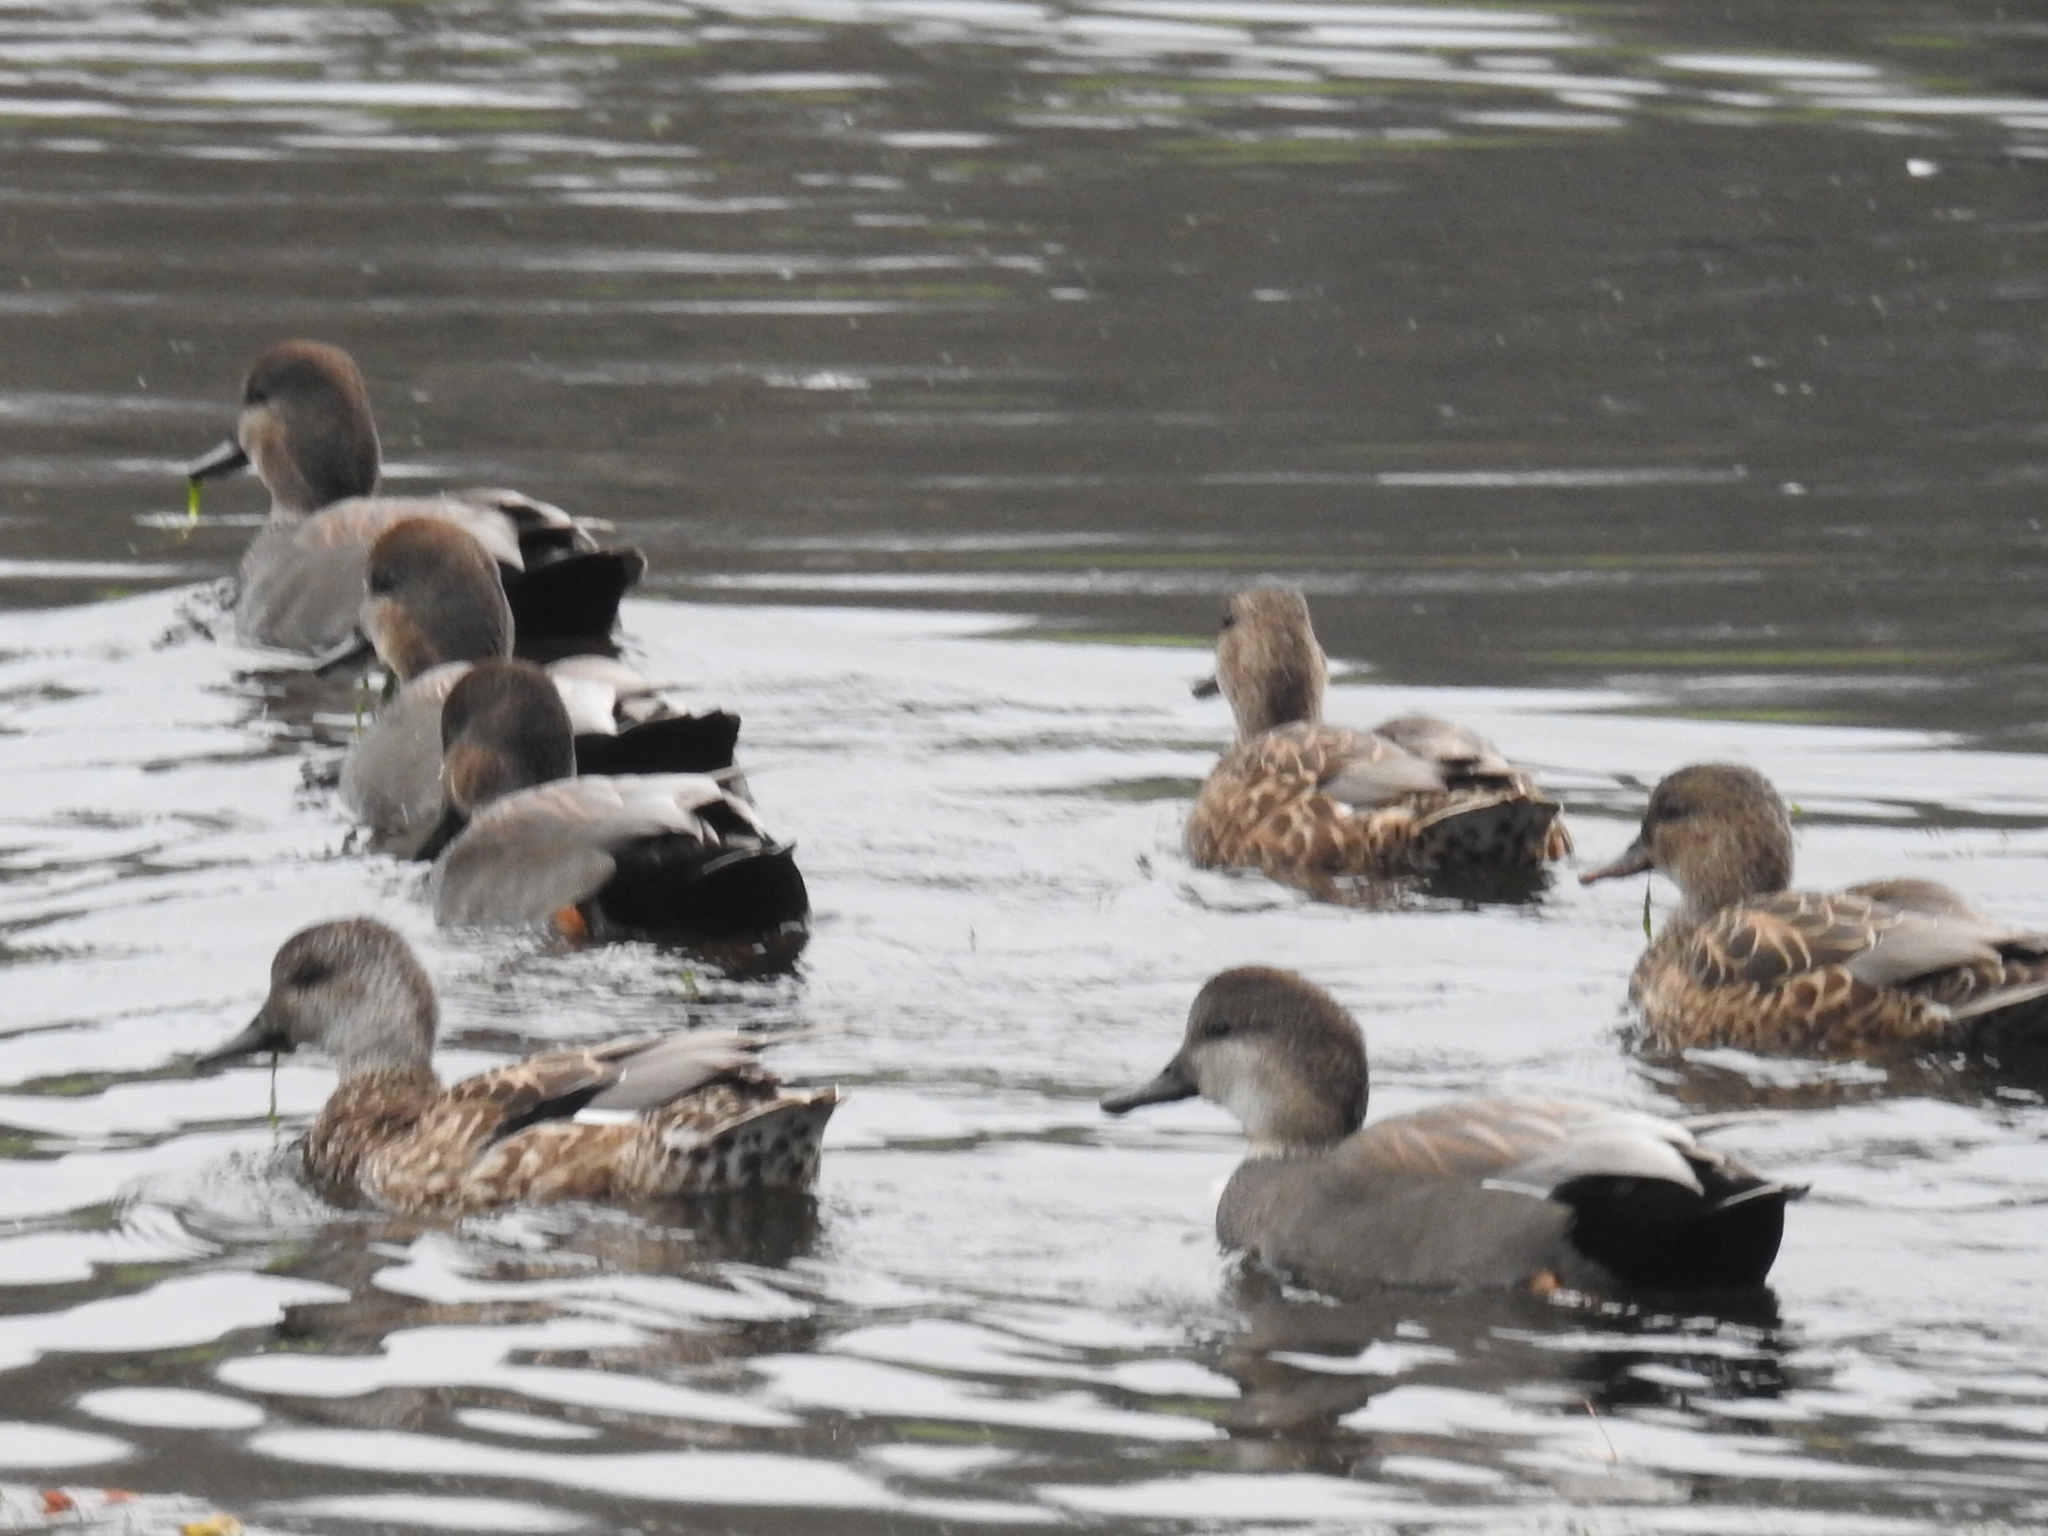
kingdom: Animalia
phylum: Chordata
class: Aves
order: Anseriformes
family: Anatidae
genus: Mareca
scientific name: Mareca strepera
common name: Gadwall
